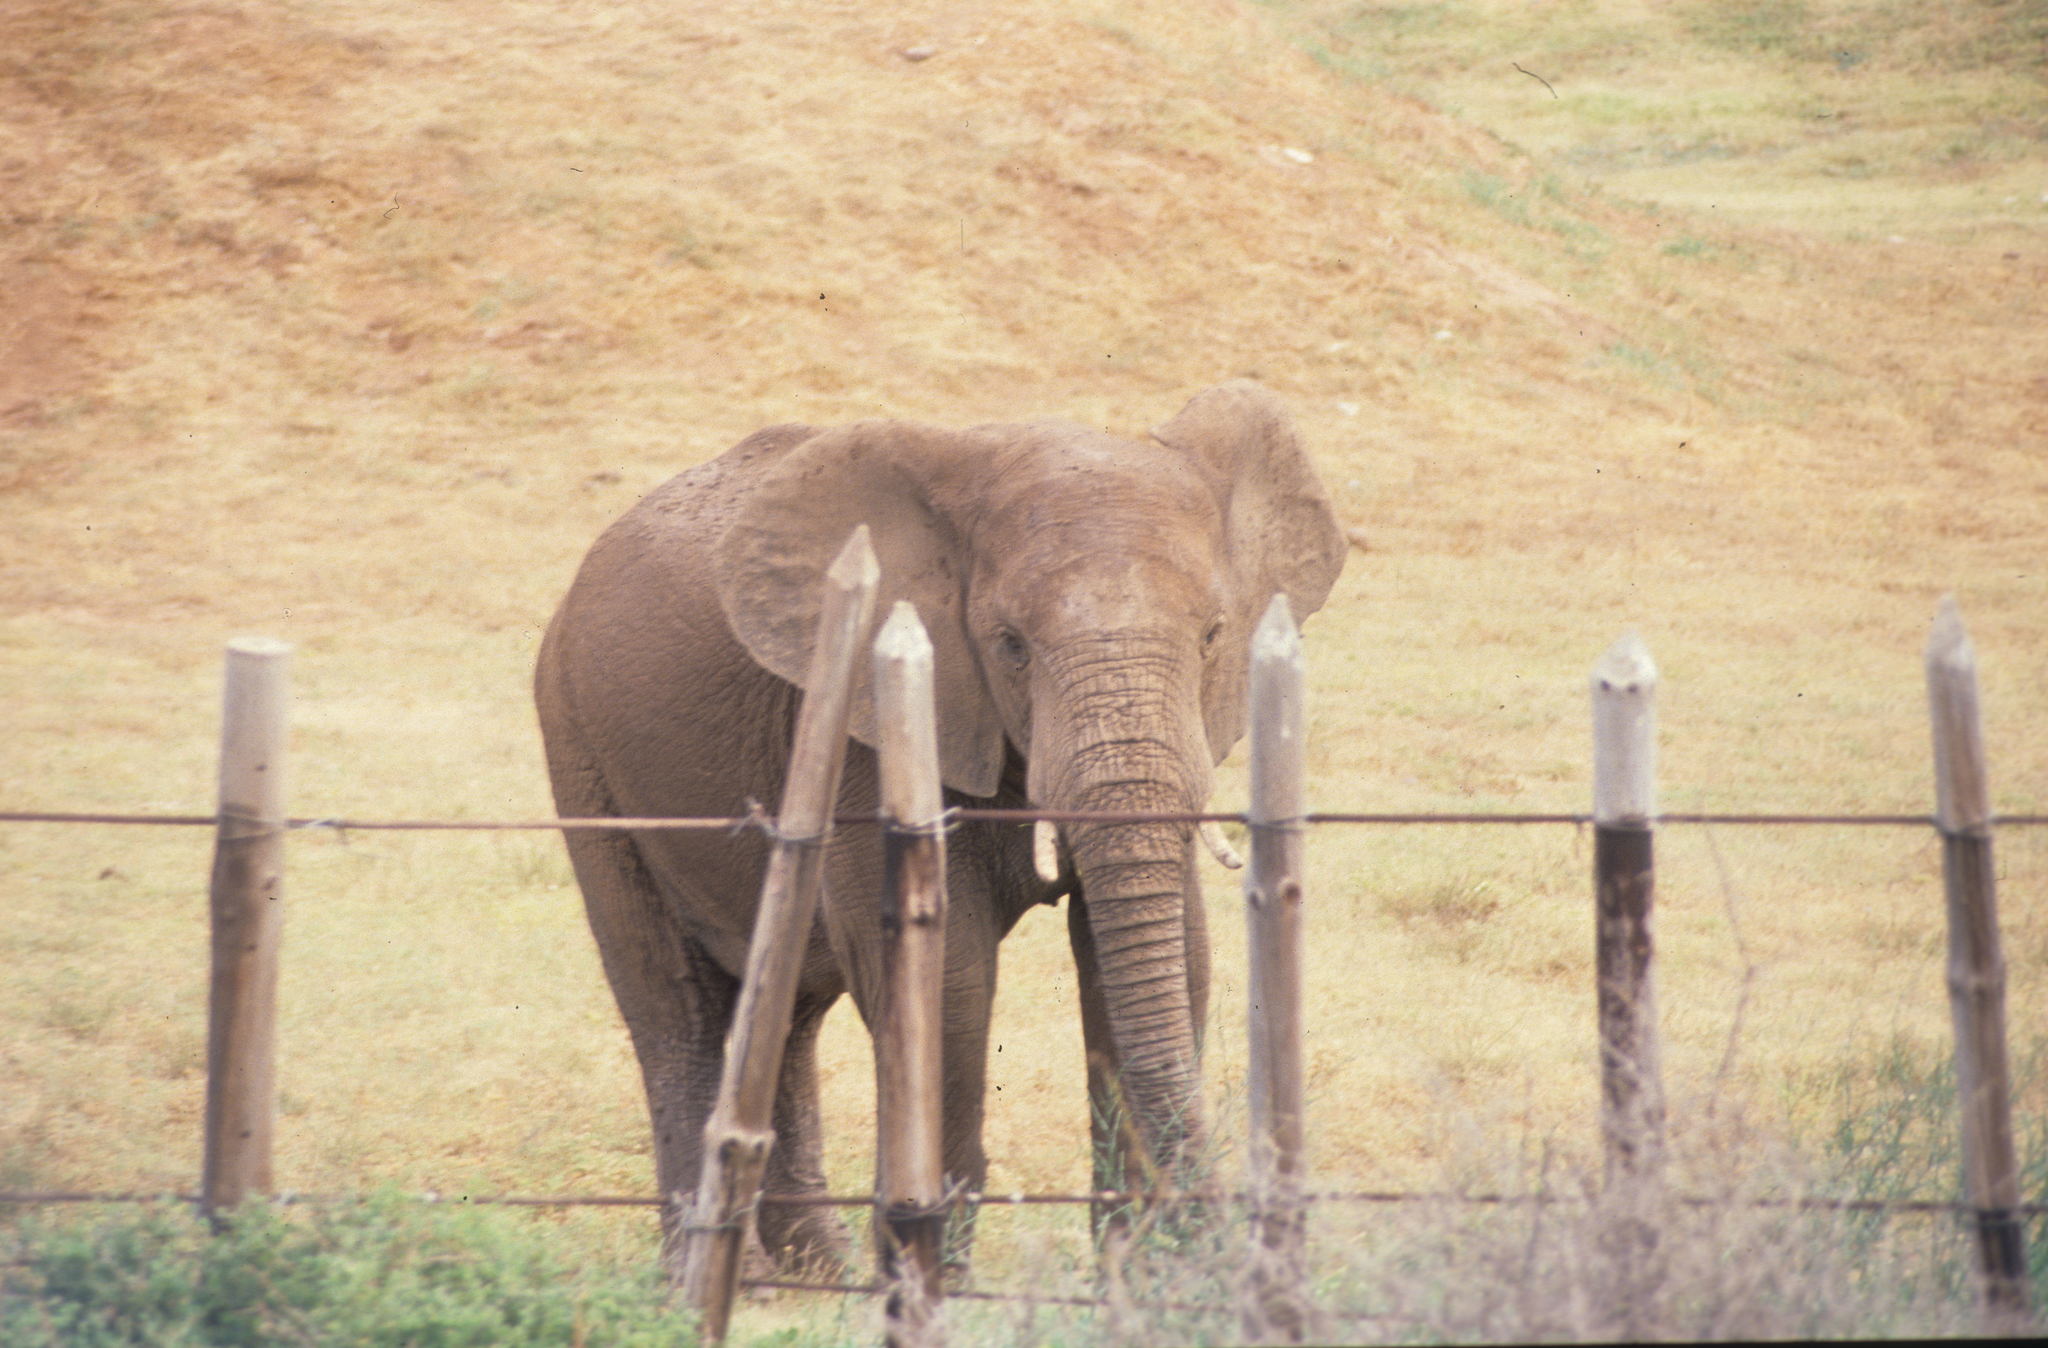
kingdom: Animalia
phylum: Chordata
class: Mammalia
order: Proboscidea
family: Elephantidae
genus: Loxodonta
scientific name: Loxodonta africana
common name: African elephant
